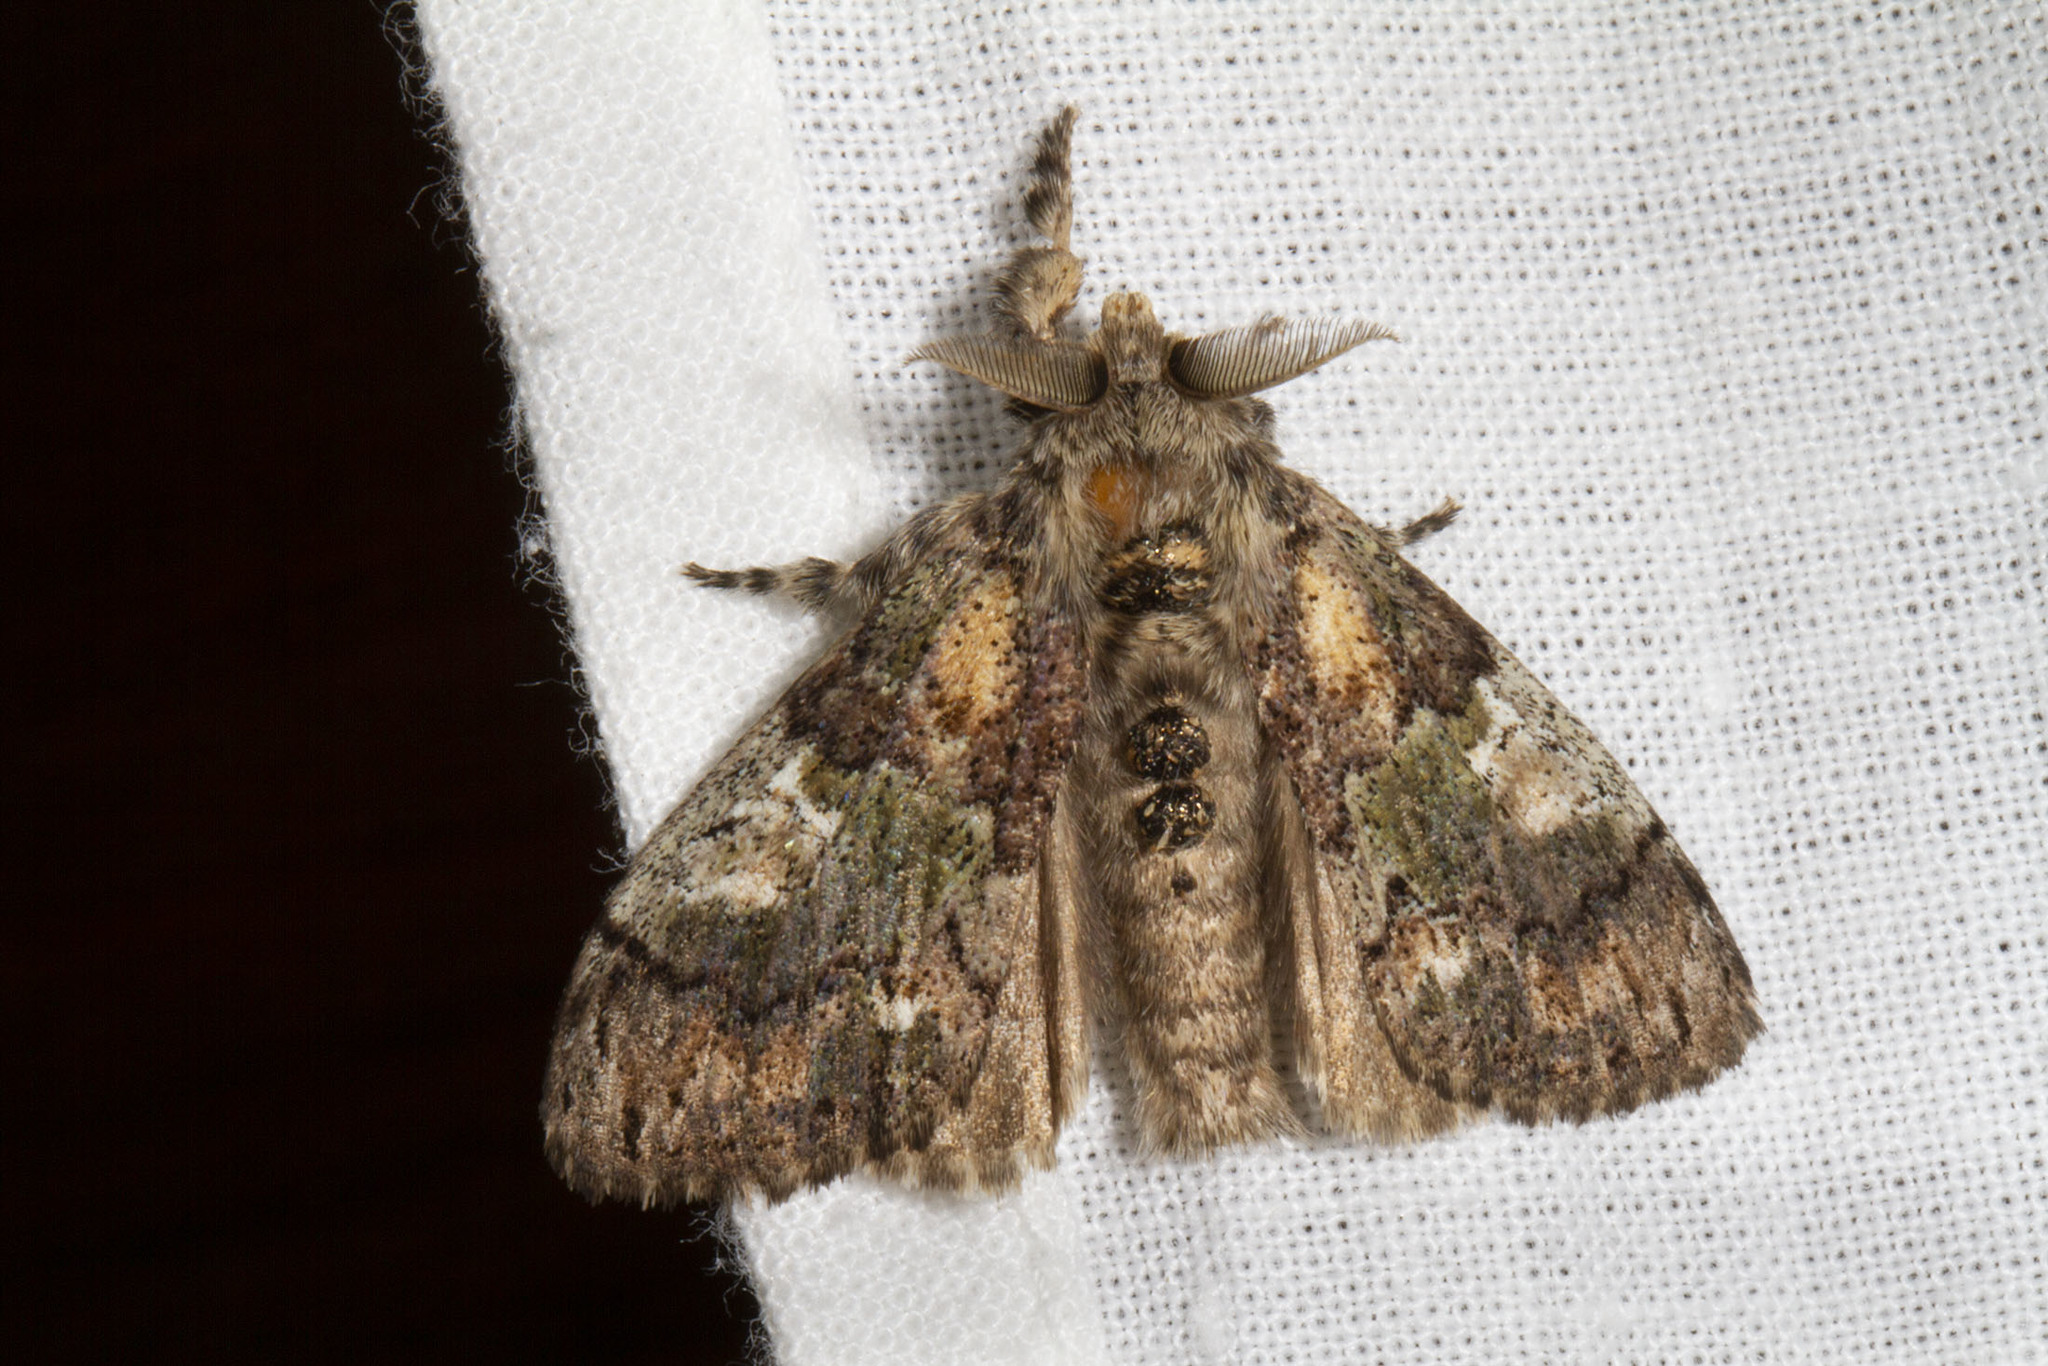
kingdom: Animalia
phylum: Arthropoda
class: Insecta
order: Lepidoptera
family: Erebidae
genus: Dasychira
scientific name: Dasychira basiflava
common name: Yellow-based tussock moth
